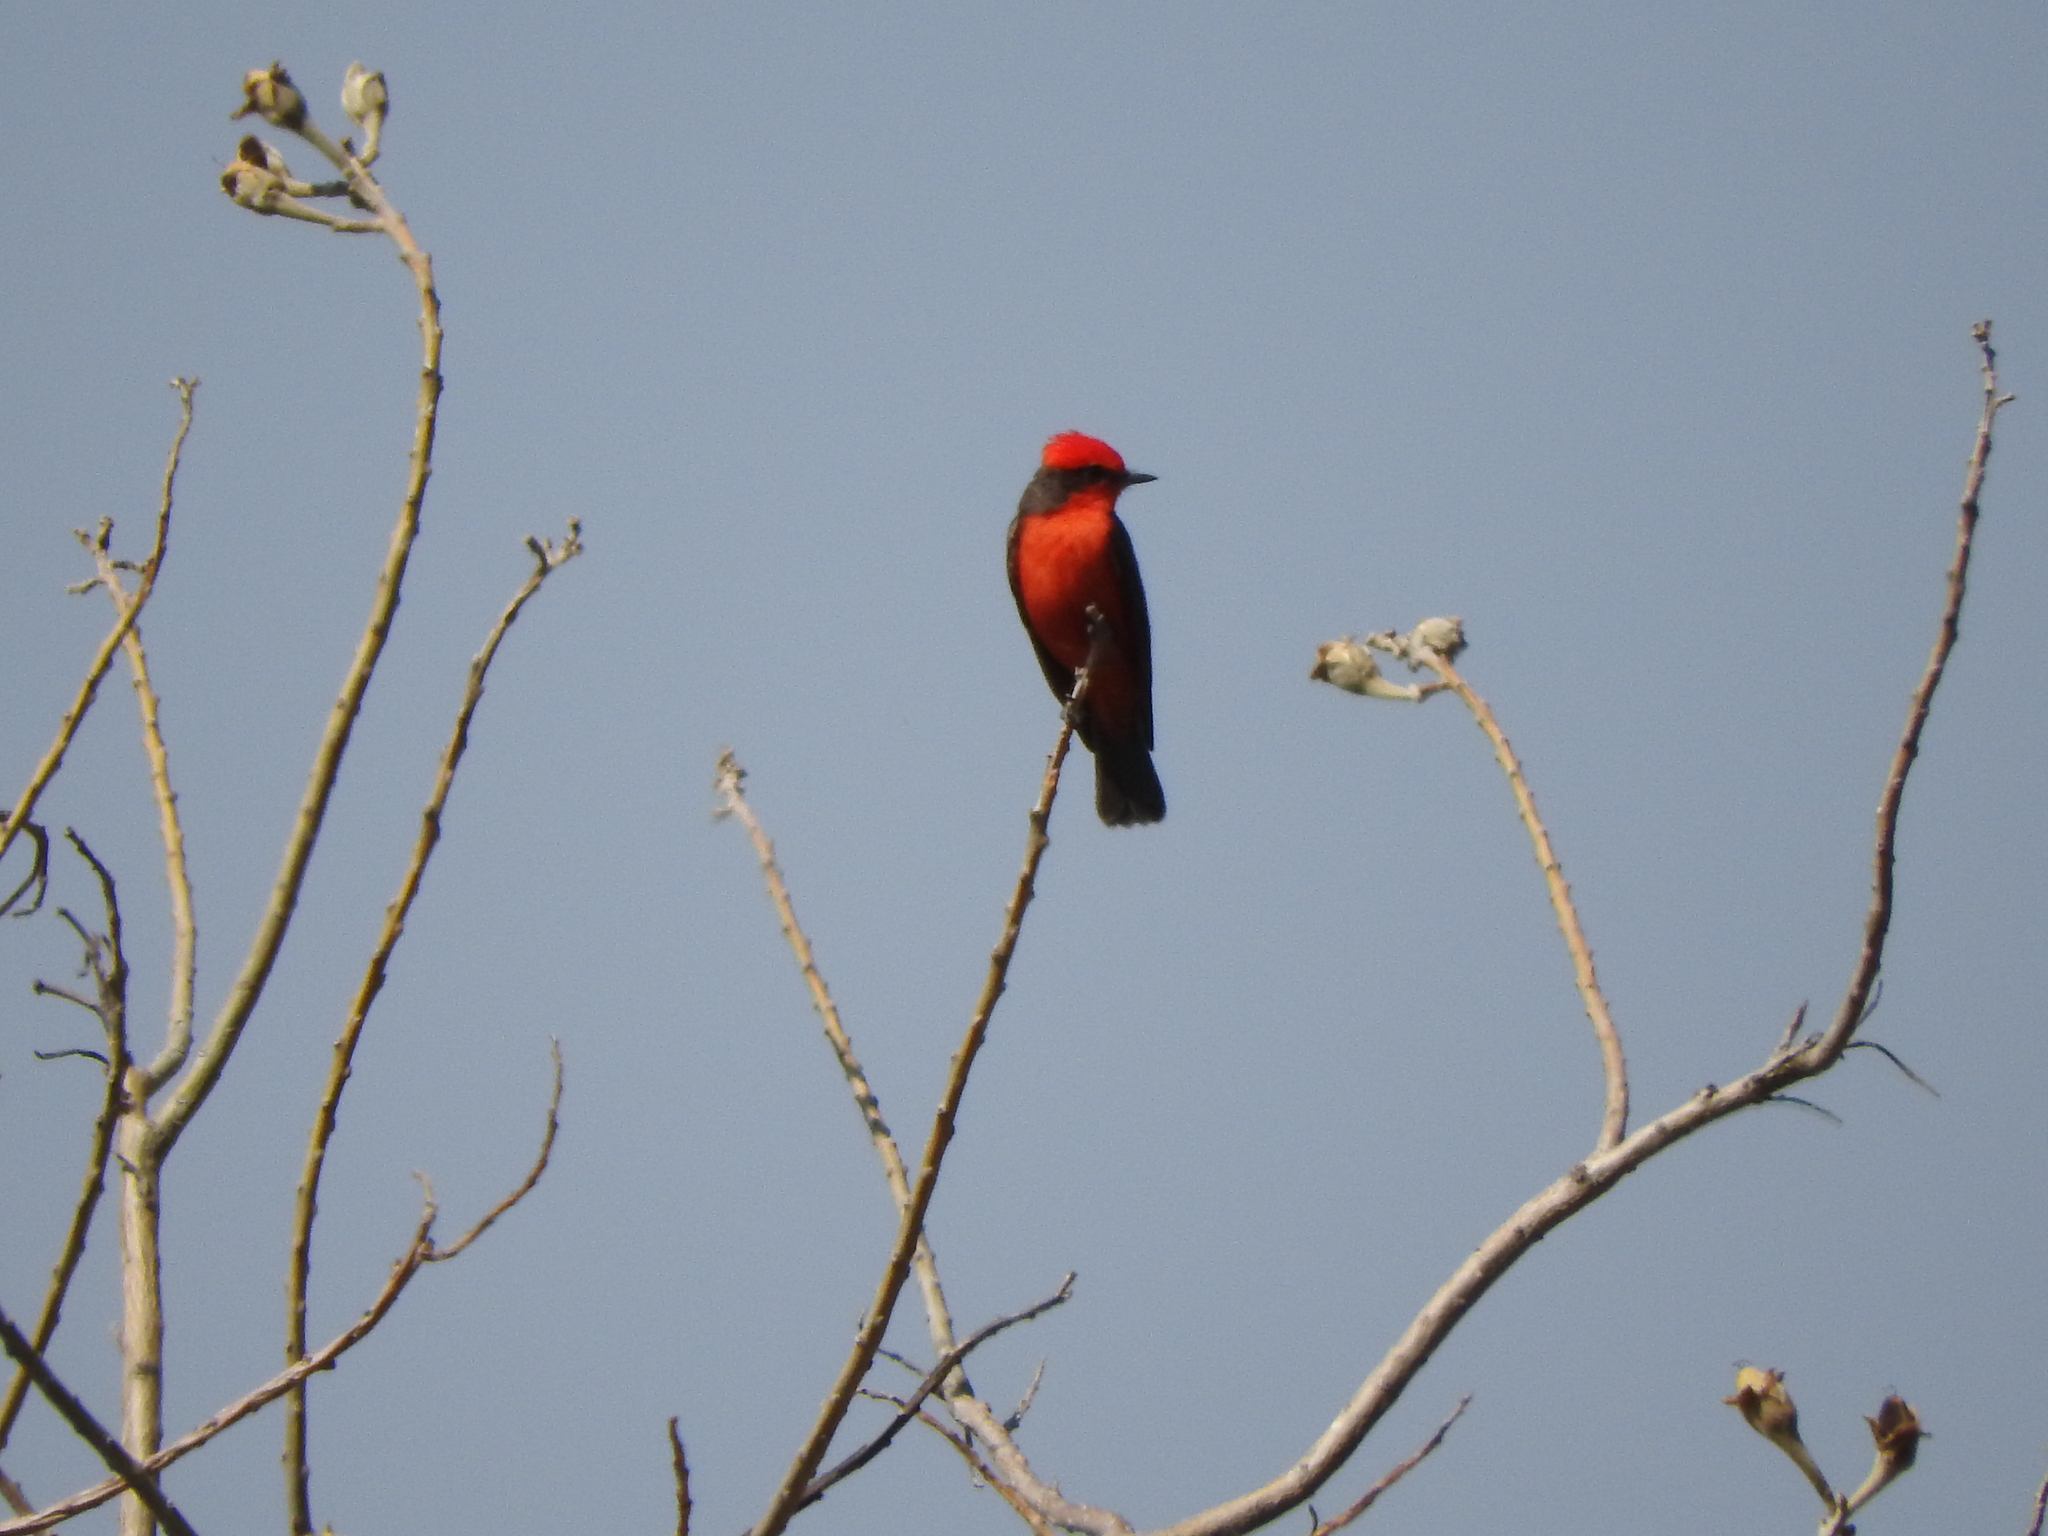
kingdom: Animalia
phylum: Chordata
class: Aves
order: Passeriformes
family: Tyrannidae
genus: Pyrocephalus
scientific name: Pyrocephalus rubinus
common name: Vermilion flycatcher
